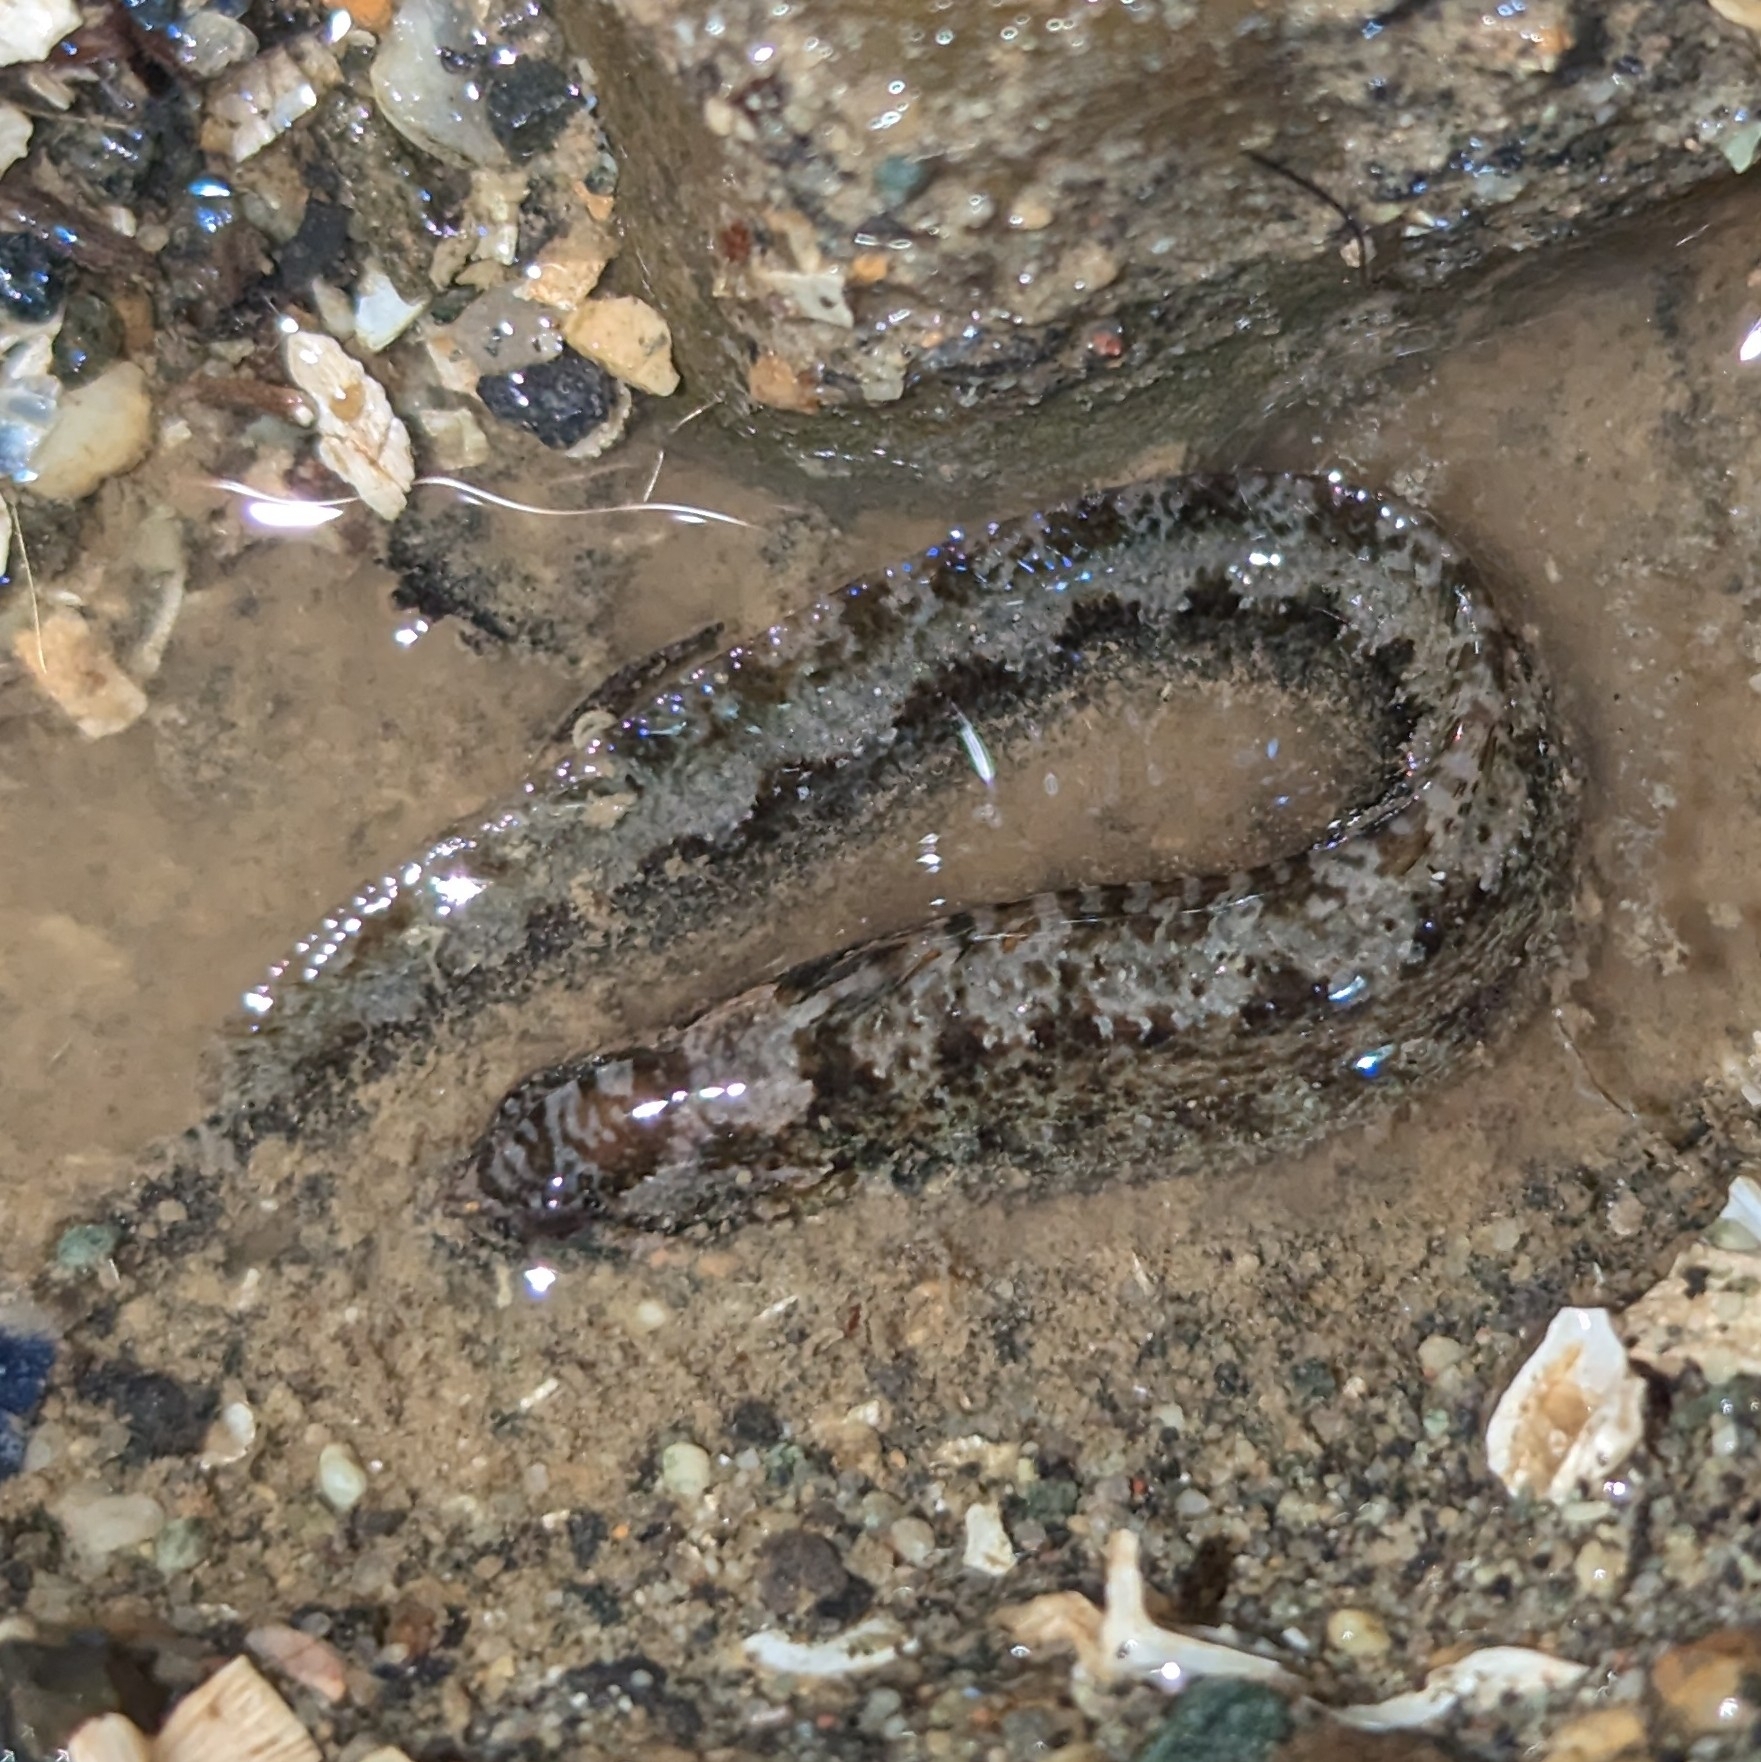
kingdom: Animalia
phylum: Chordata
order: Perciformes
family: Stichaeidae
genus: Anoplarchus
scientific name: Anoplarchus purpurescens
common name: High cockscomb
